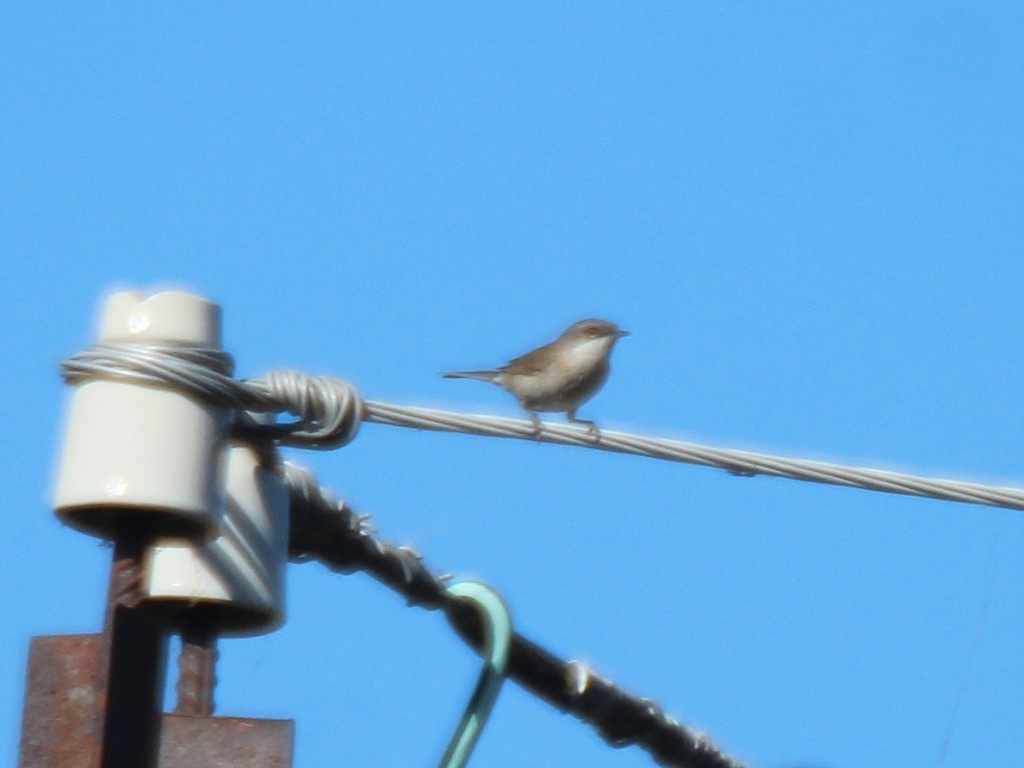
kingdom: Animalia
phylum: Chordata
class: Aves
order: Passeriformes
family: Sylviidae
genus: Sylvia
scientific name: Sylvia curruca
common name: Lesser whitethroat
